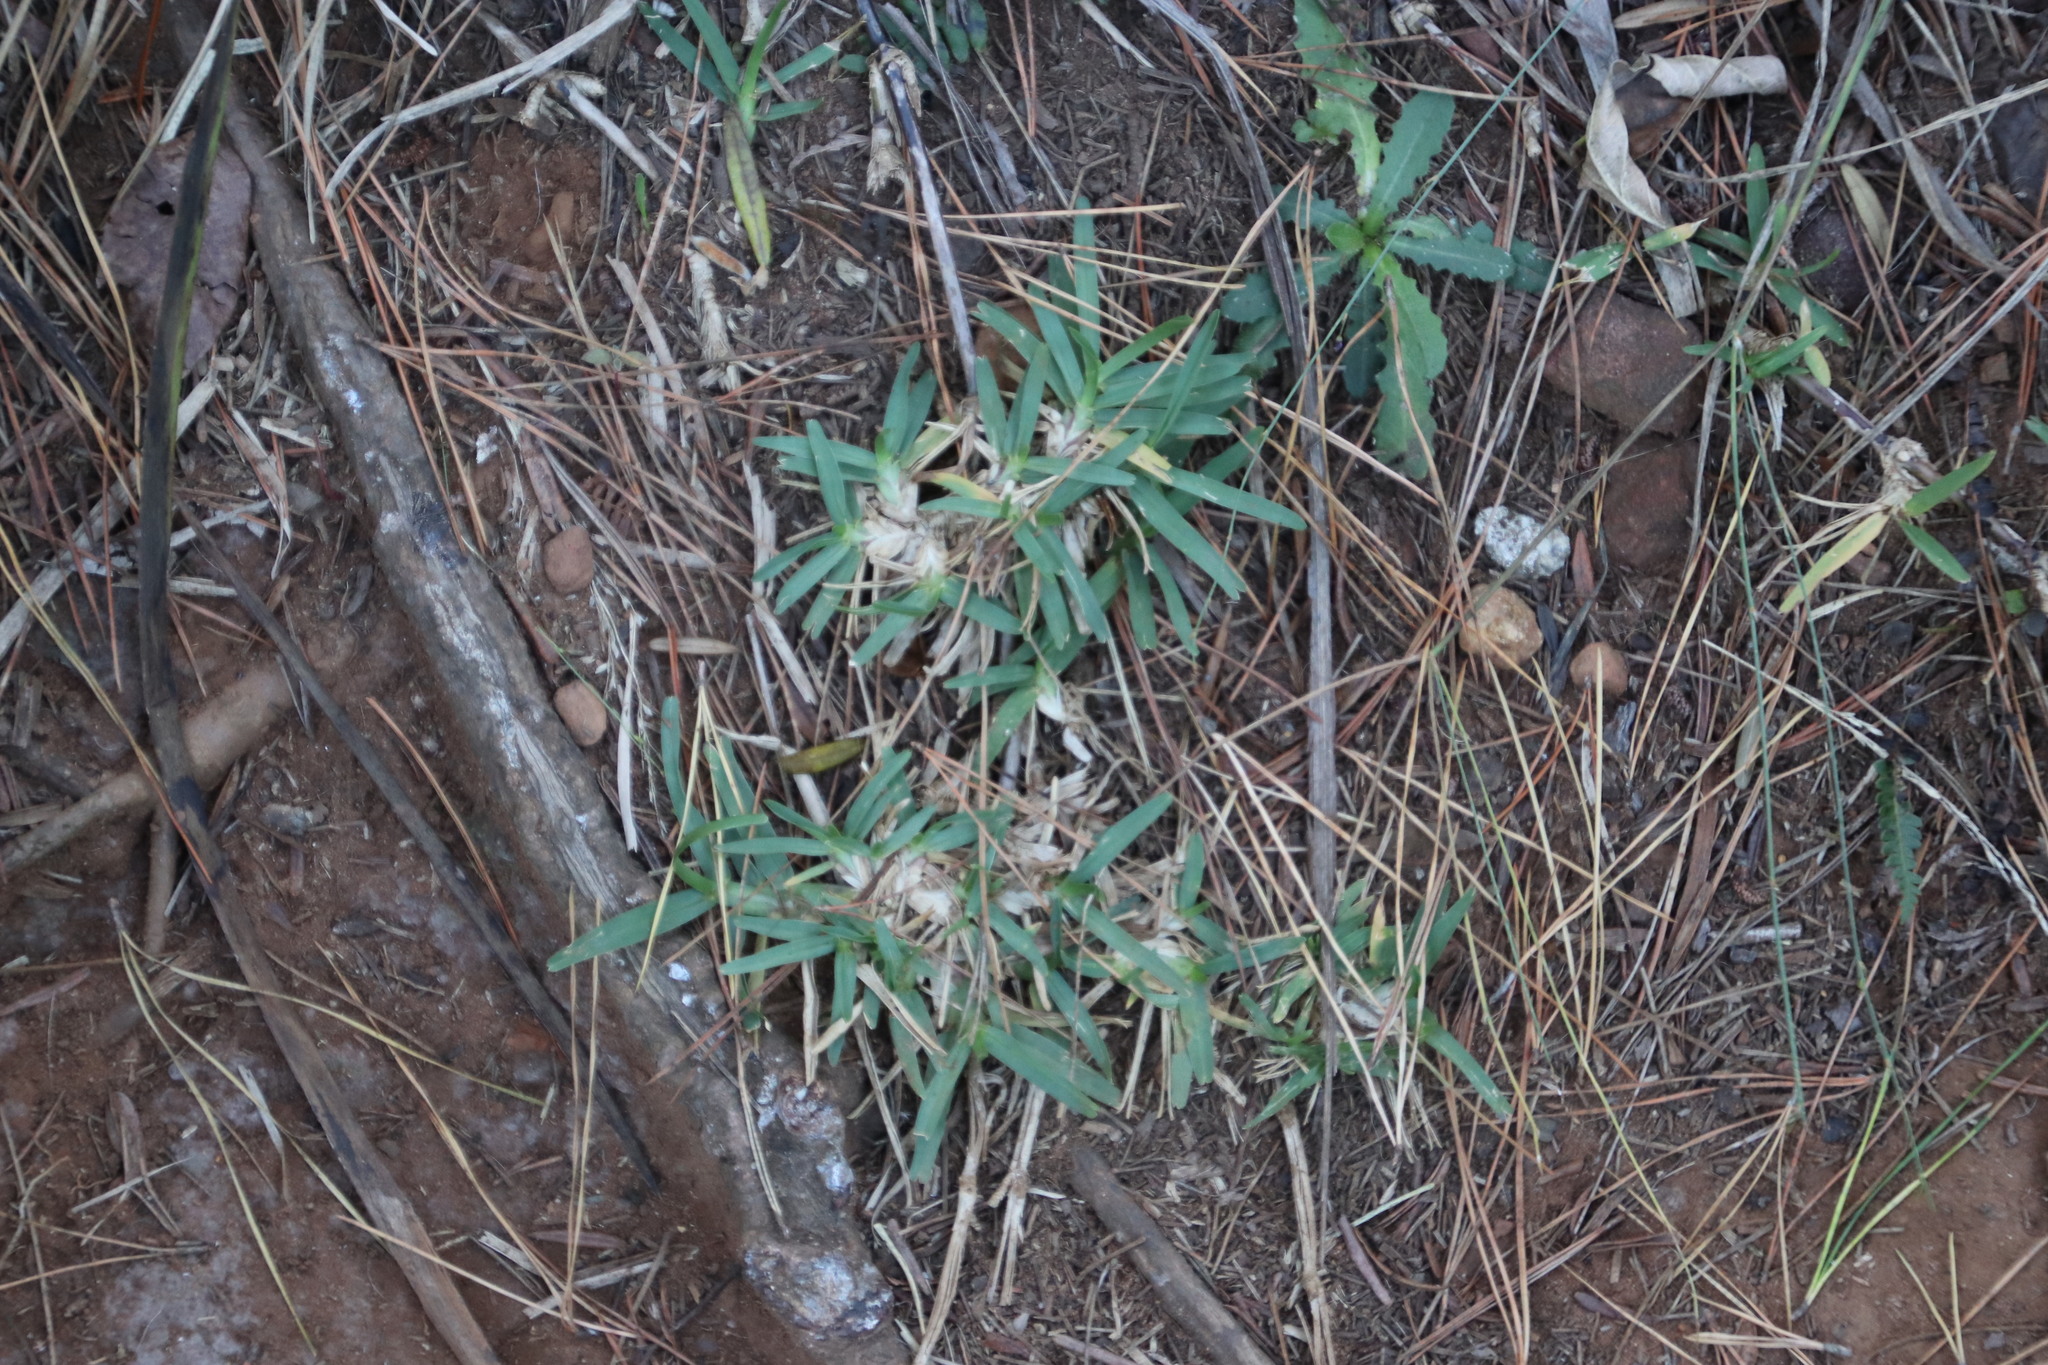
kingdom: Plantae
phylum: Tracheophyta
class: Liliopsida
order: Poales
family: Poaceae
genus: Stenotaphrum
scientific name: Stenotaphrum secundatum
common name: St. augustine grass
